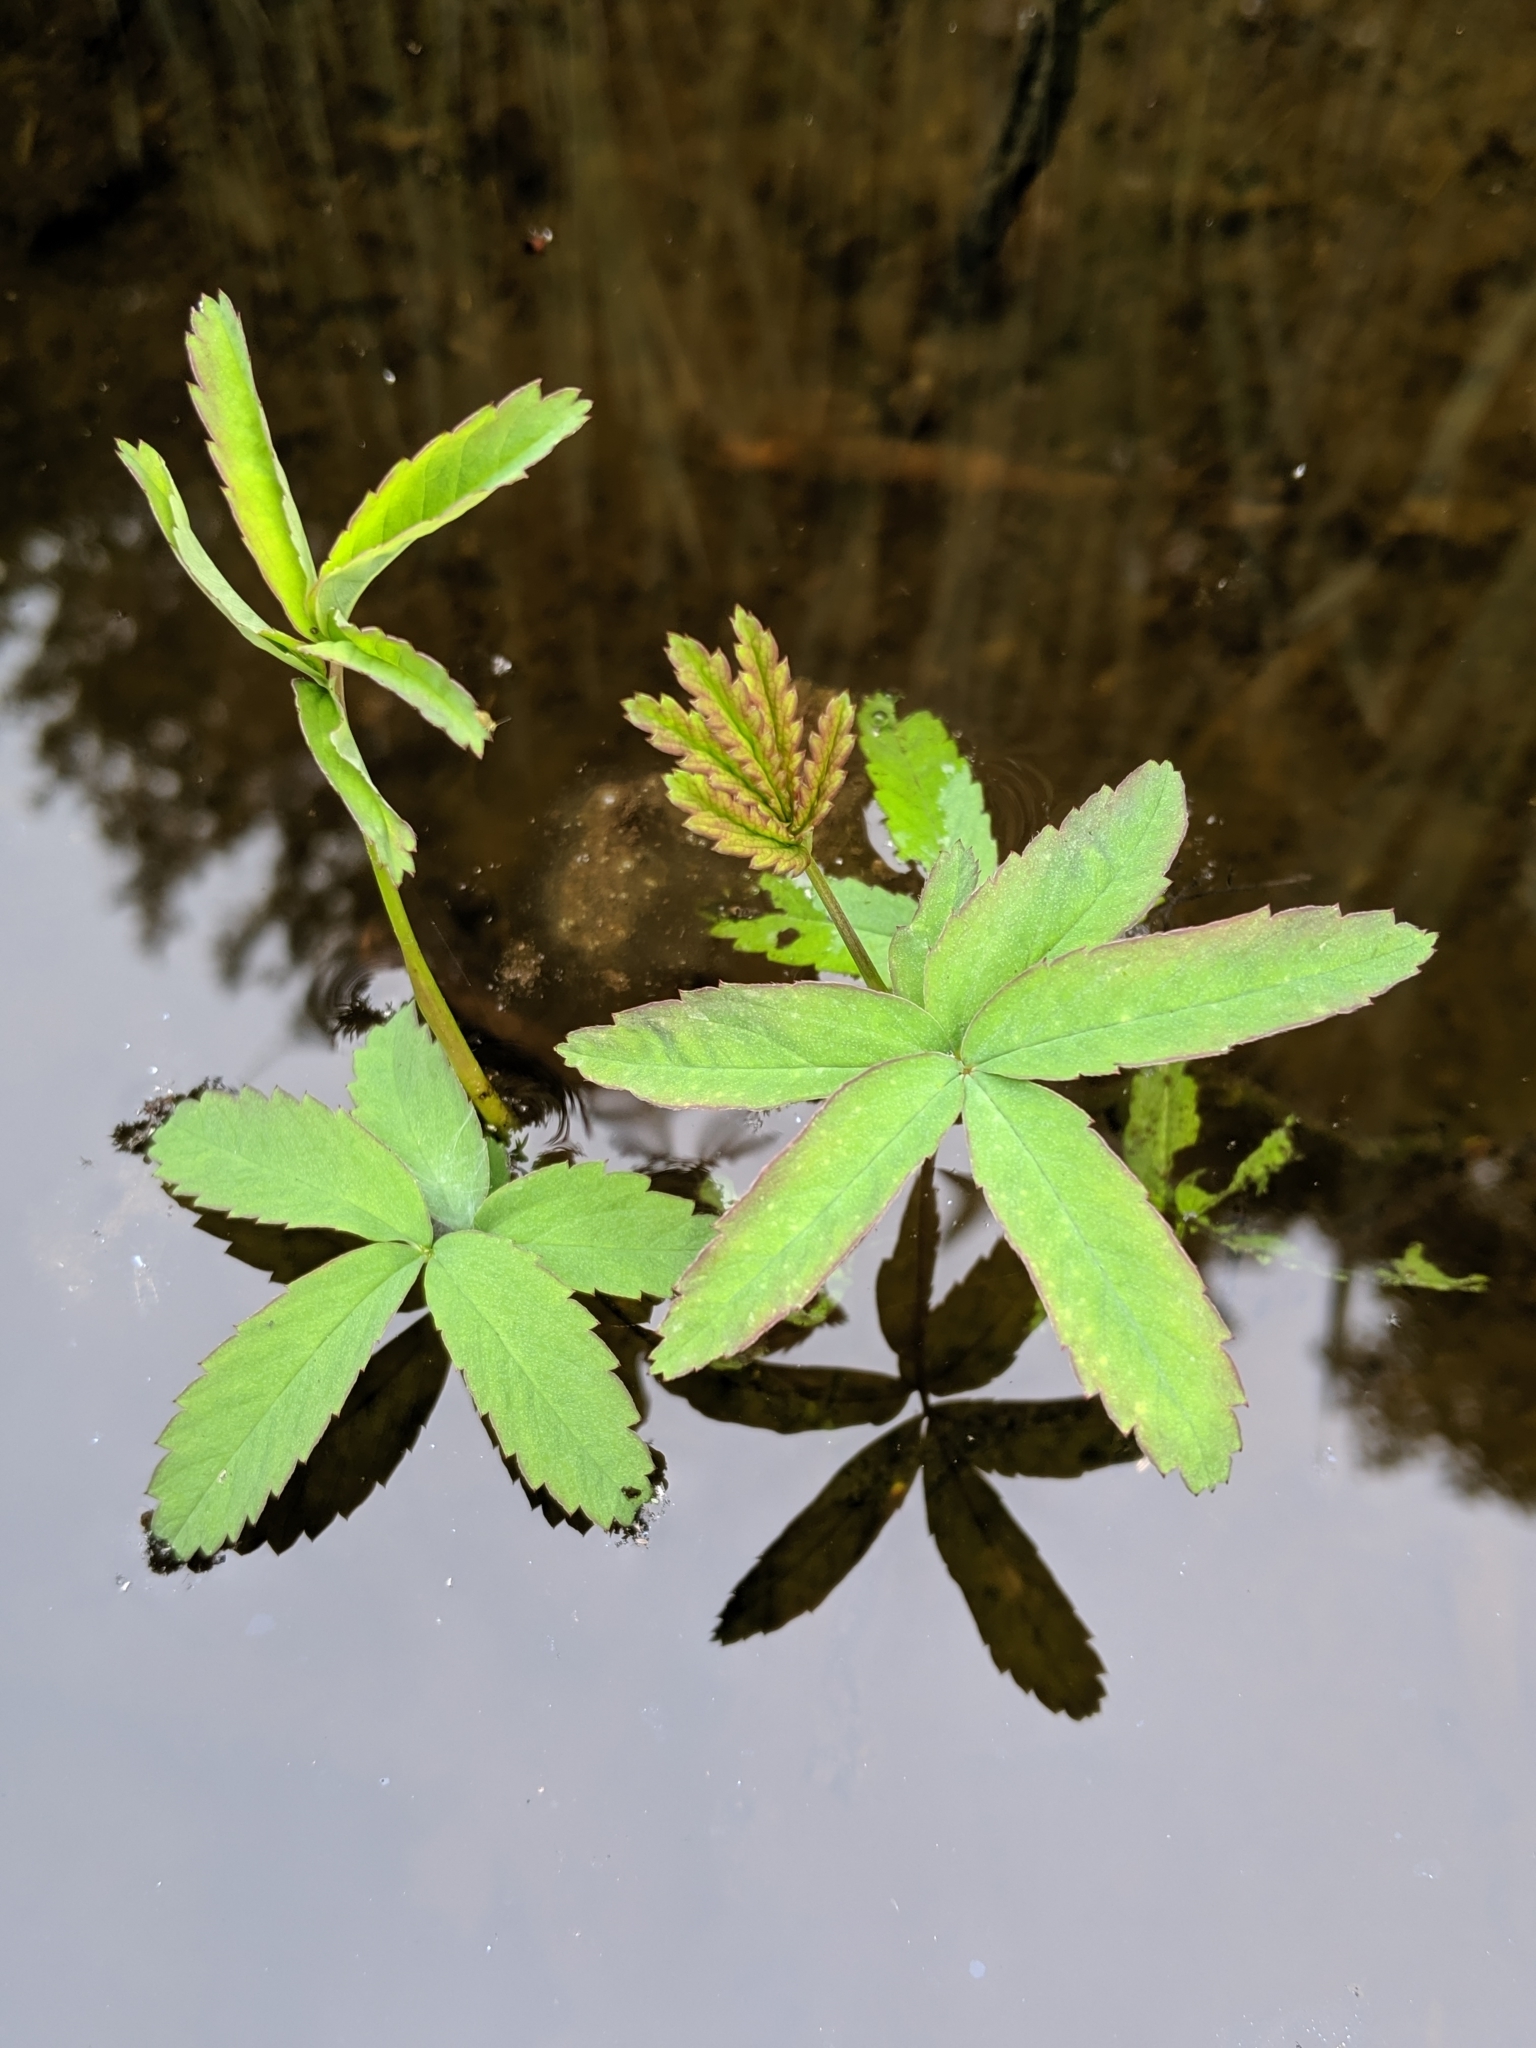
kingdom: Plantae
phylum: Tracheophyta
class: Magnoliopsida
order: Rosales
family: Rosaceae
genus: Comarum
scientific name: Comarum palustre
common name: Marsh cinquefoil
